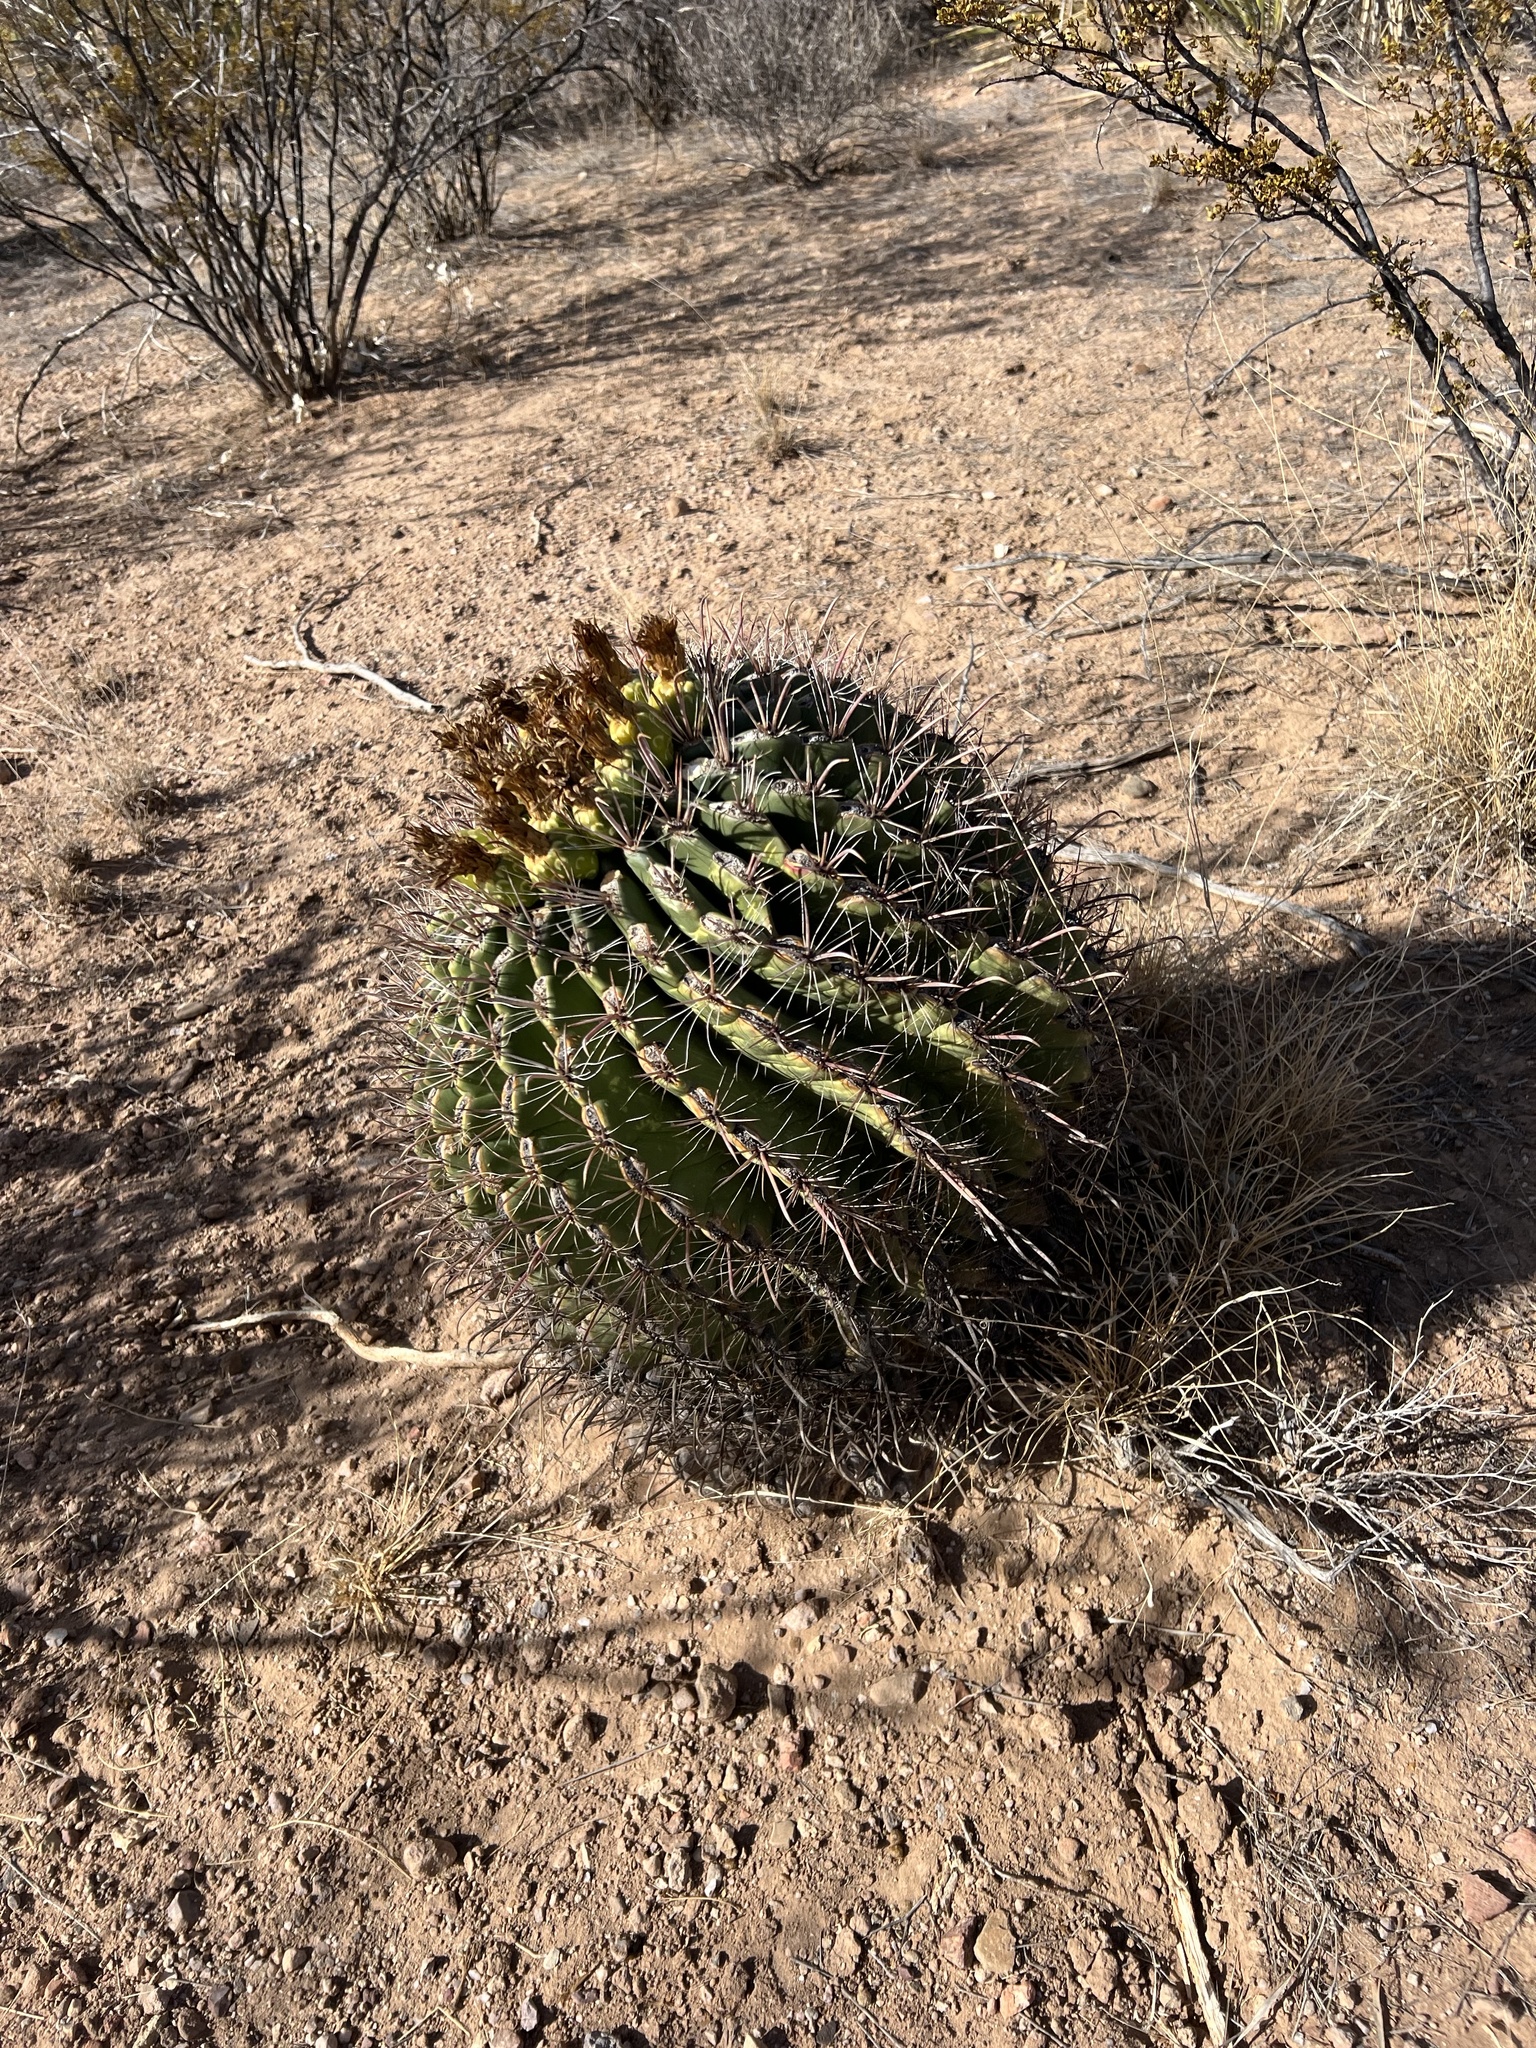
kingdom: Plantae
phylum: Tracheophyta
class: Magnoliopsida
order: Caryophyllales
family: Cactaceae
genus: Ferocactus
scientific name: Ferocactus wislizeni
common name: Candy barrel cactus
